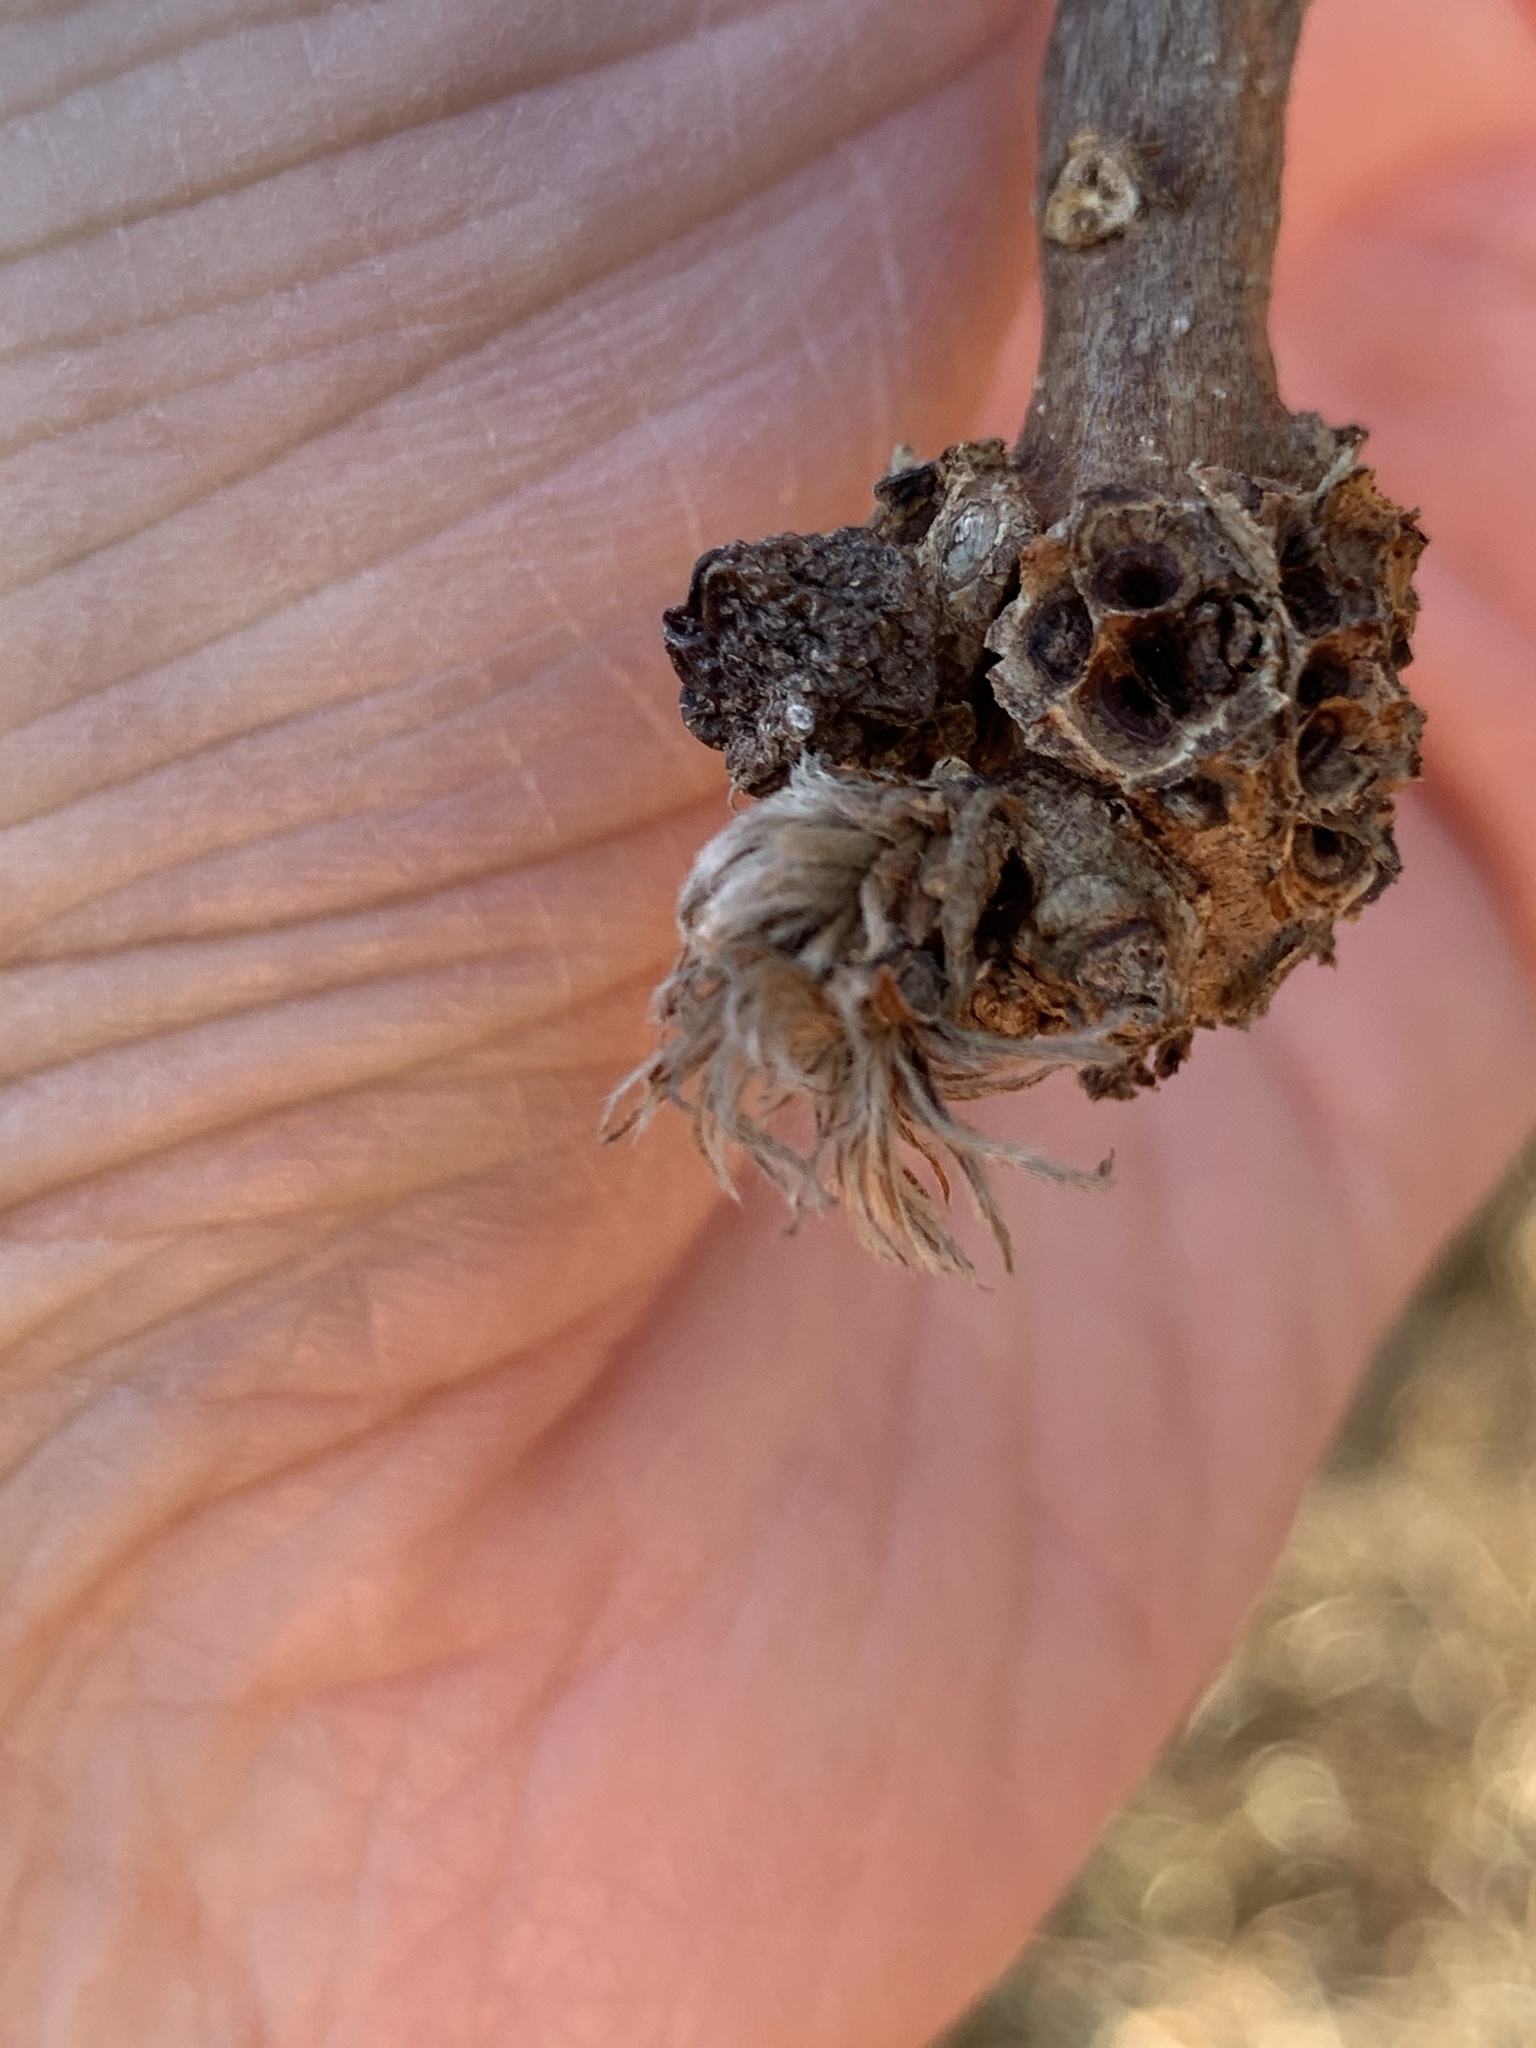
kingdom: Animalia
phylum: Arthropoda
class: Insecta
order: Hymenoptera
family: Cynipidae
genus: Andricus
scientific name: Andricus
